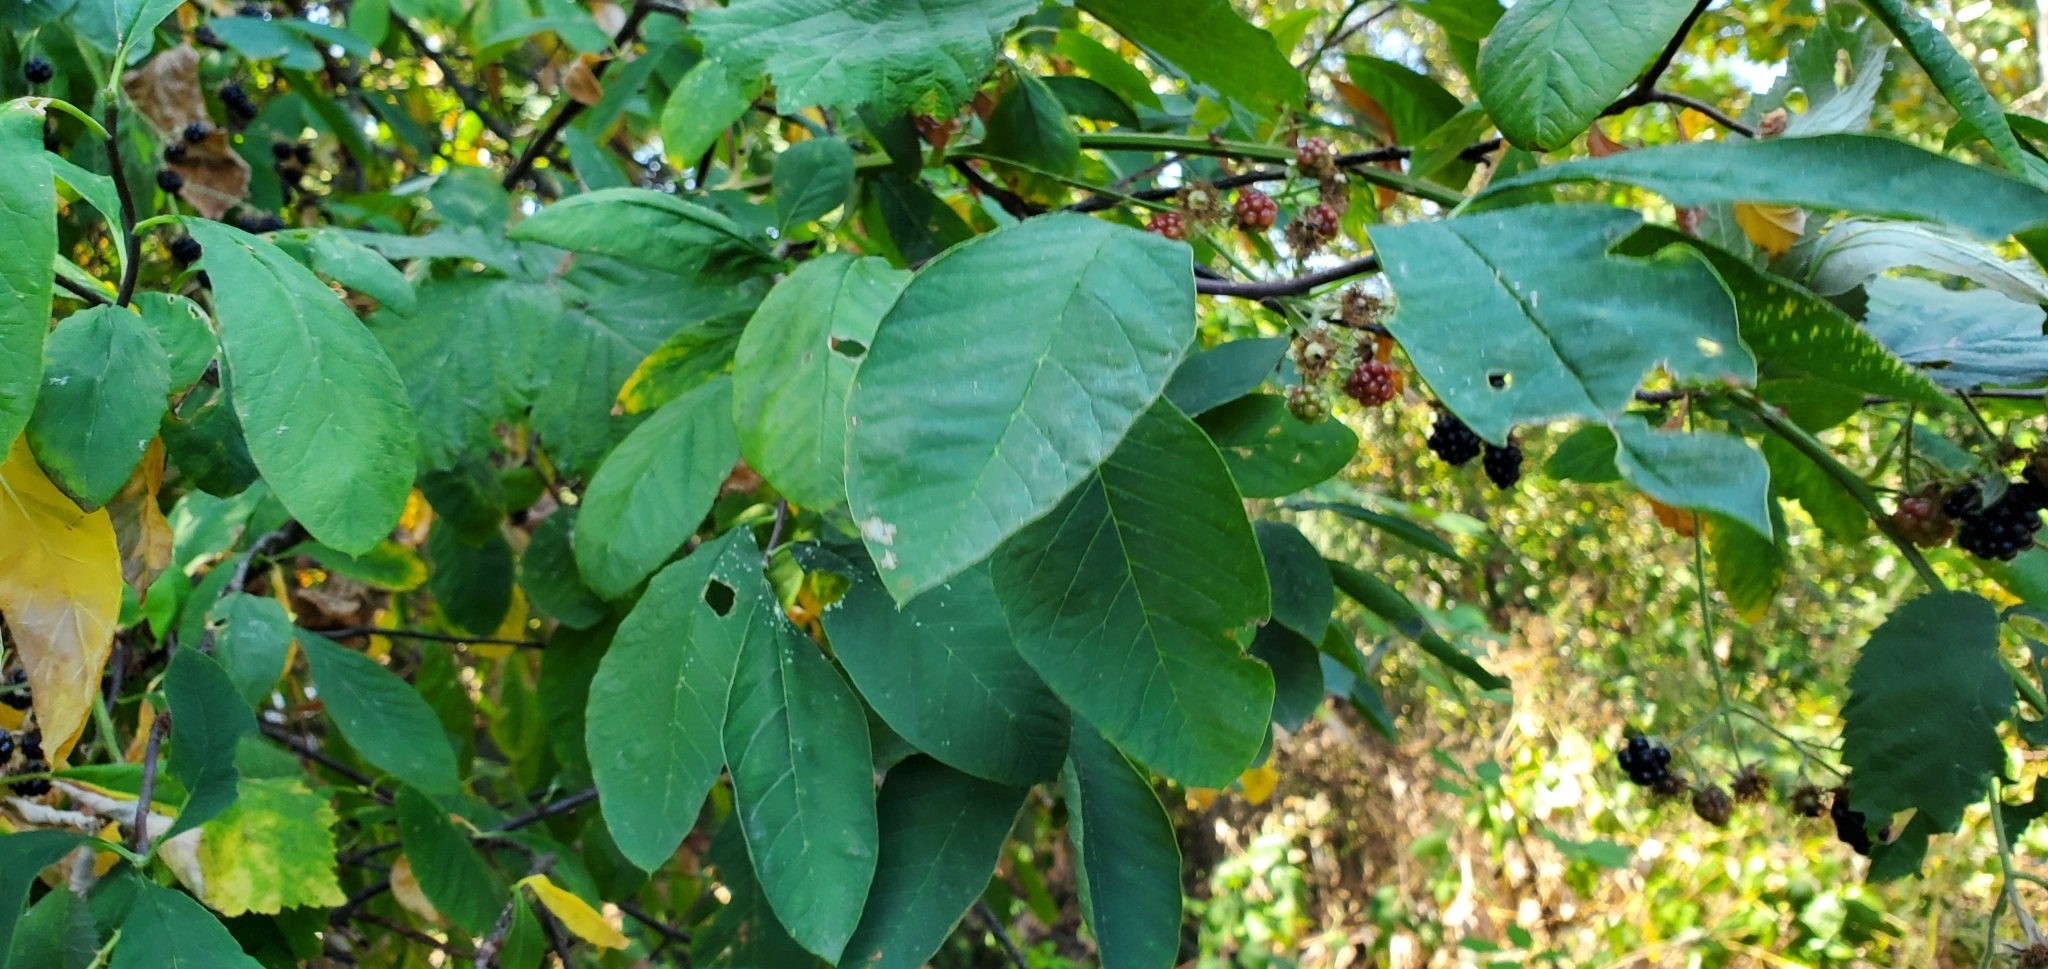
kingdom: Plantae
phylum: Tracheophyta
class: Magnoliopsida
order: Rosales
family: Rosaceae
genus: Rubus
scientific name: Rubus armeniacus
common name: Himalayan blackberry
